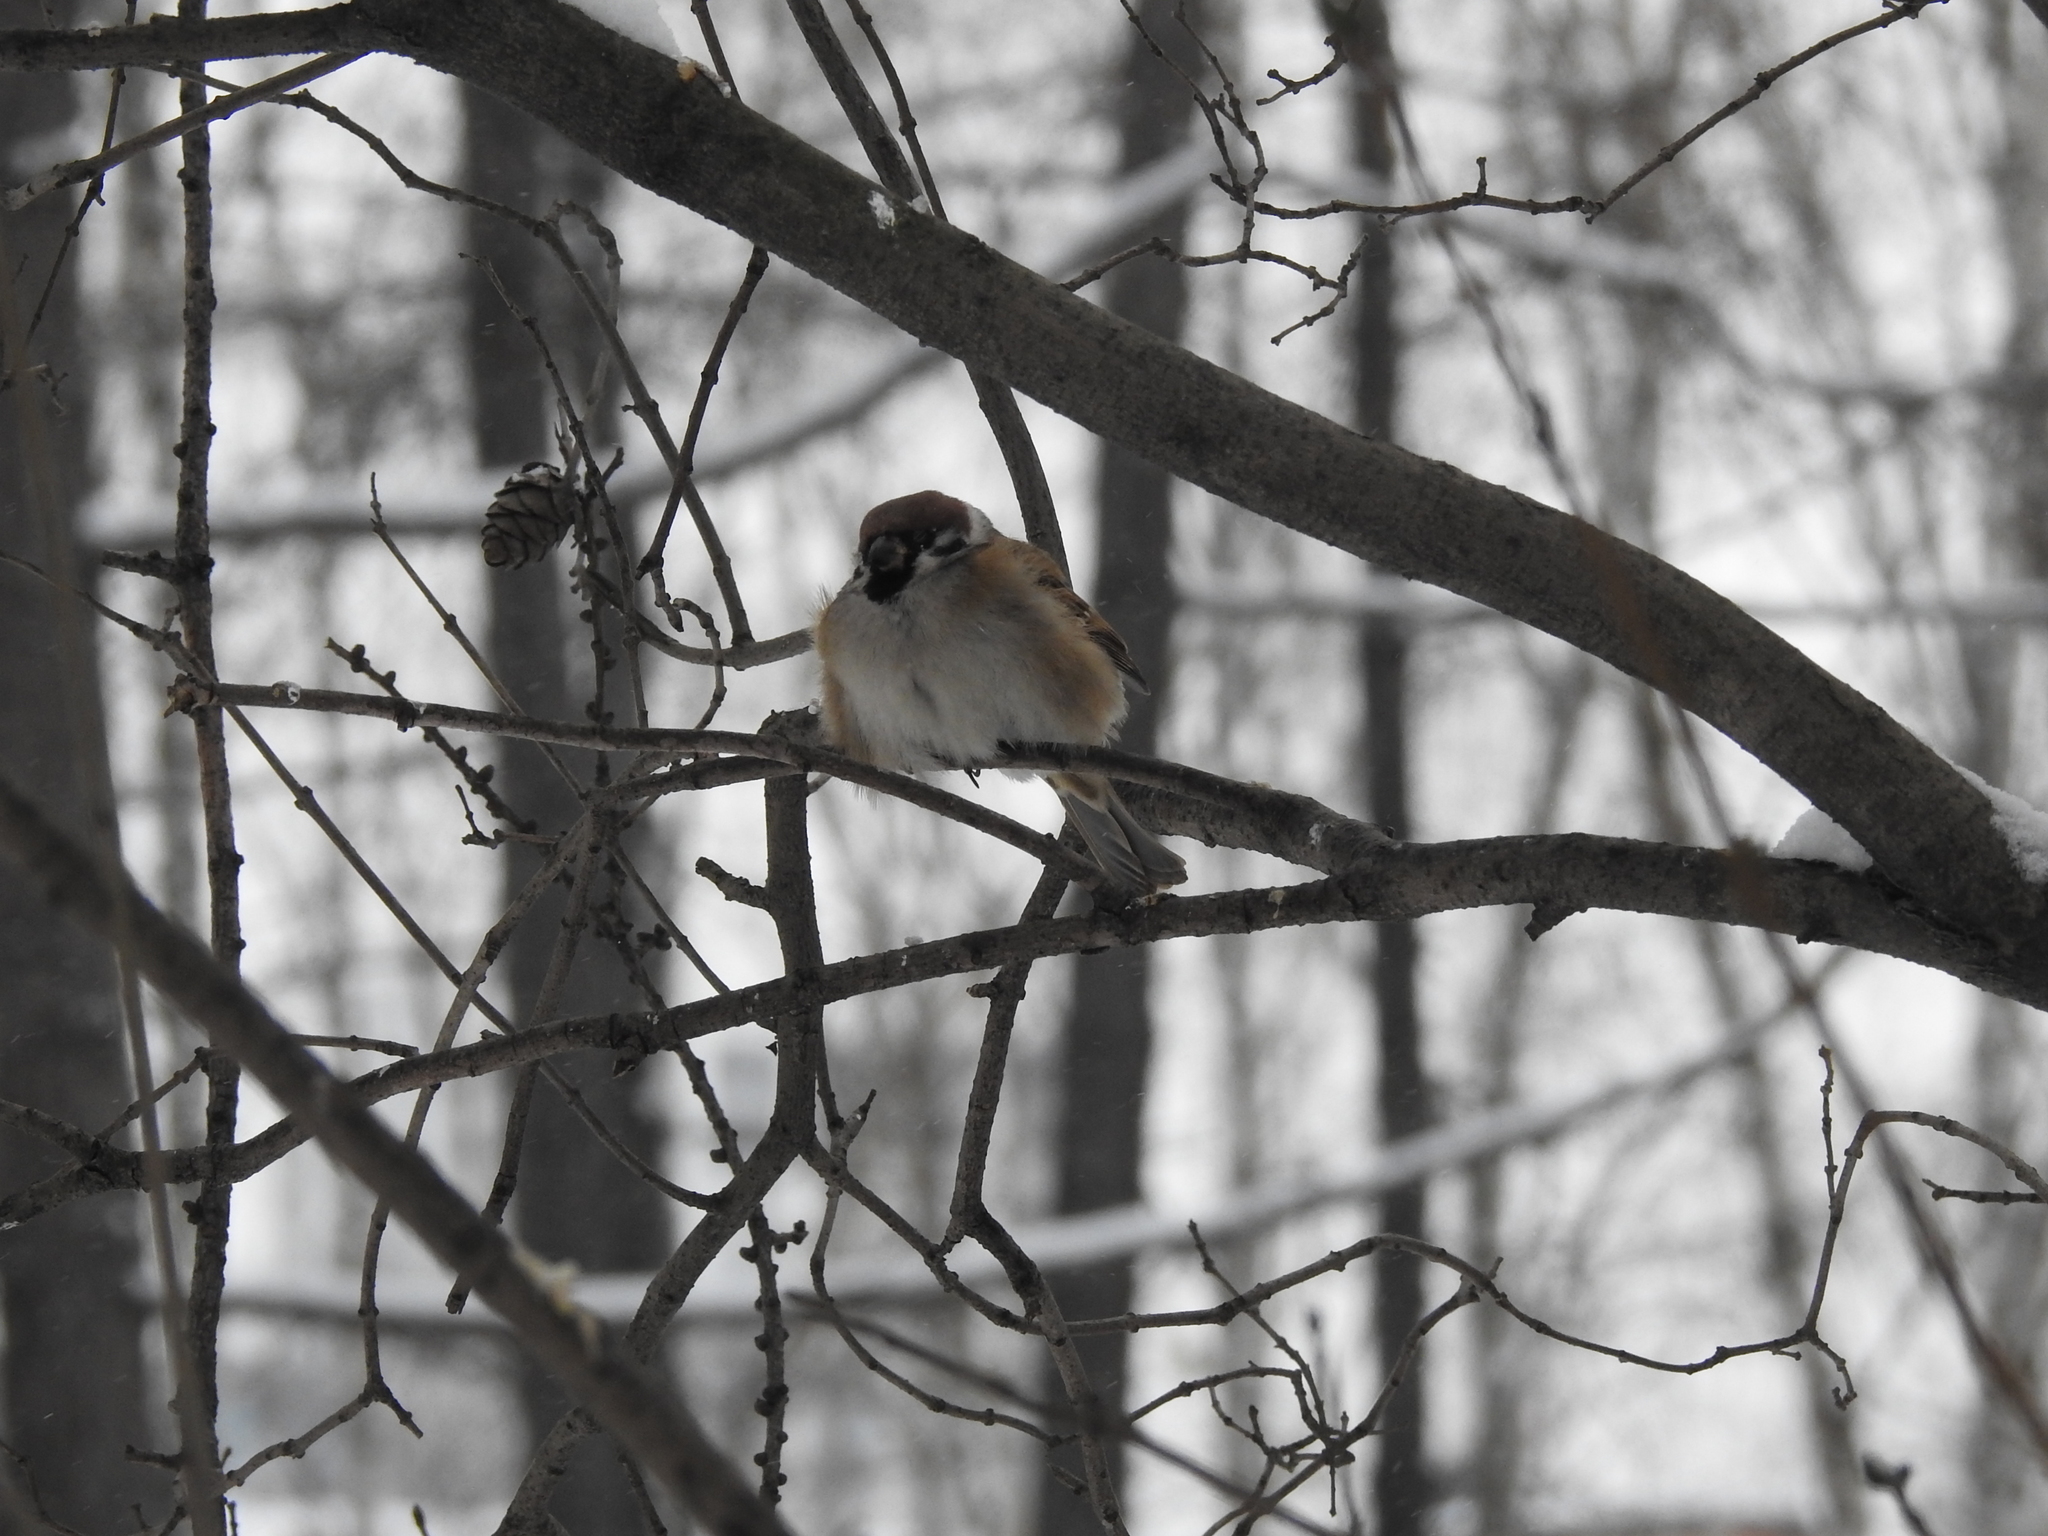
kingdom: Animalia
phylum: Chordata
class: Aves
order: Passeriformes
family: Passeridae
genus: Passer
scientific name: Passer montanus
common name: Eurasian tree sparrow
